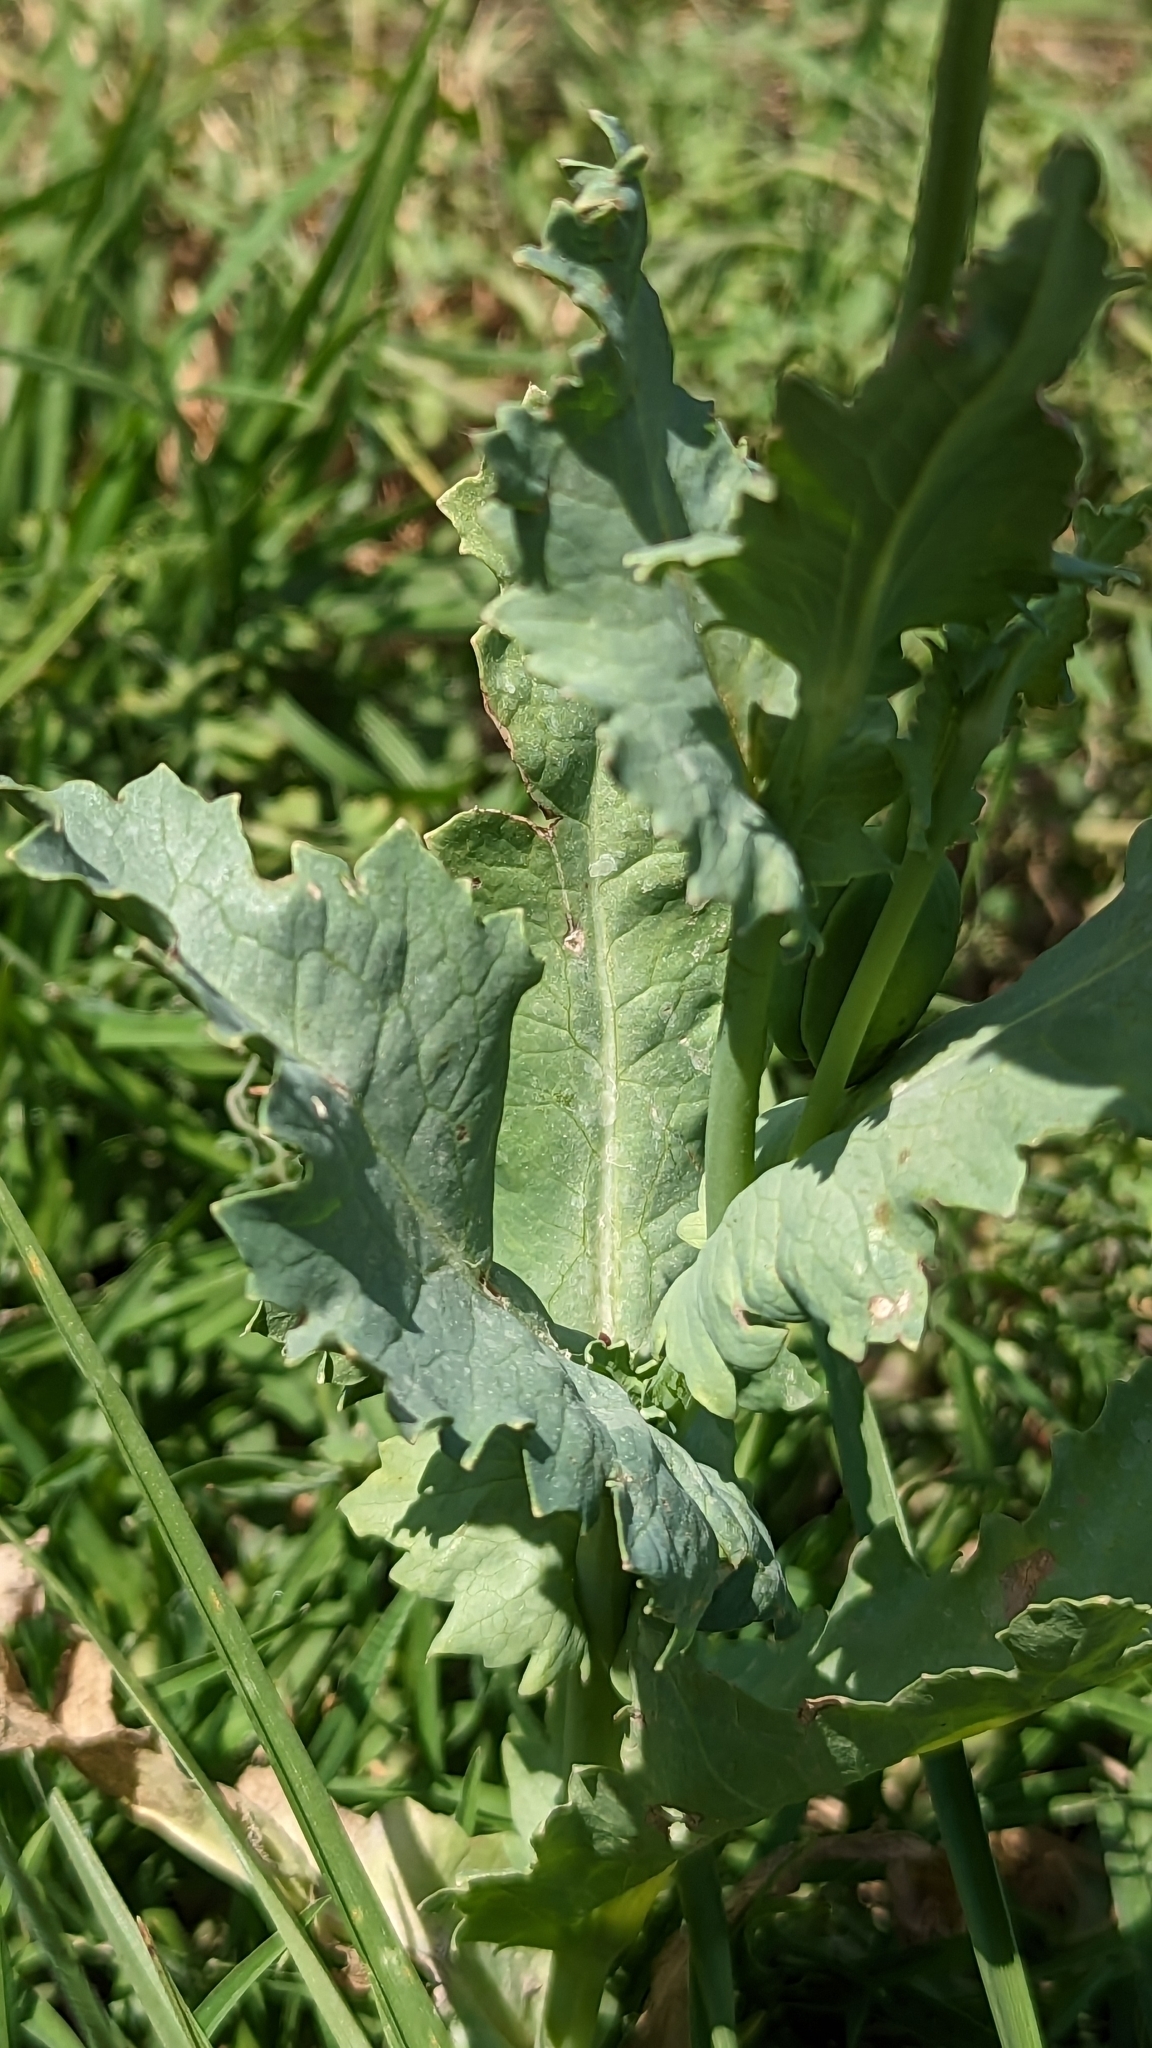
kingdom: Plantae
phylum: Tracheophyta
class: Magnoliopsida
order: Ranunculales
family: Papaveraceae
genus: Papaver
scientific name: Papaver somniferum
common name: Opium poppy
